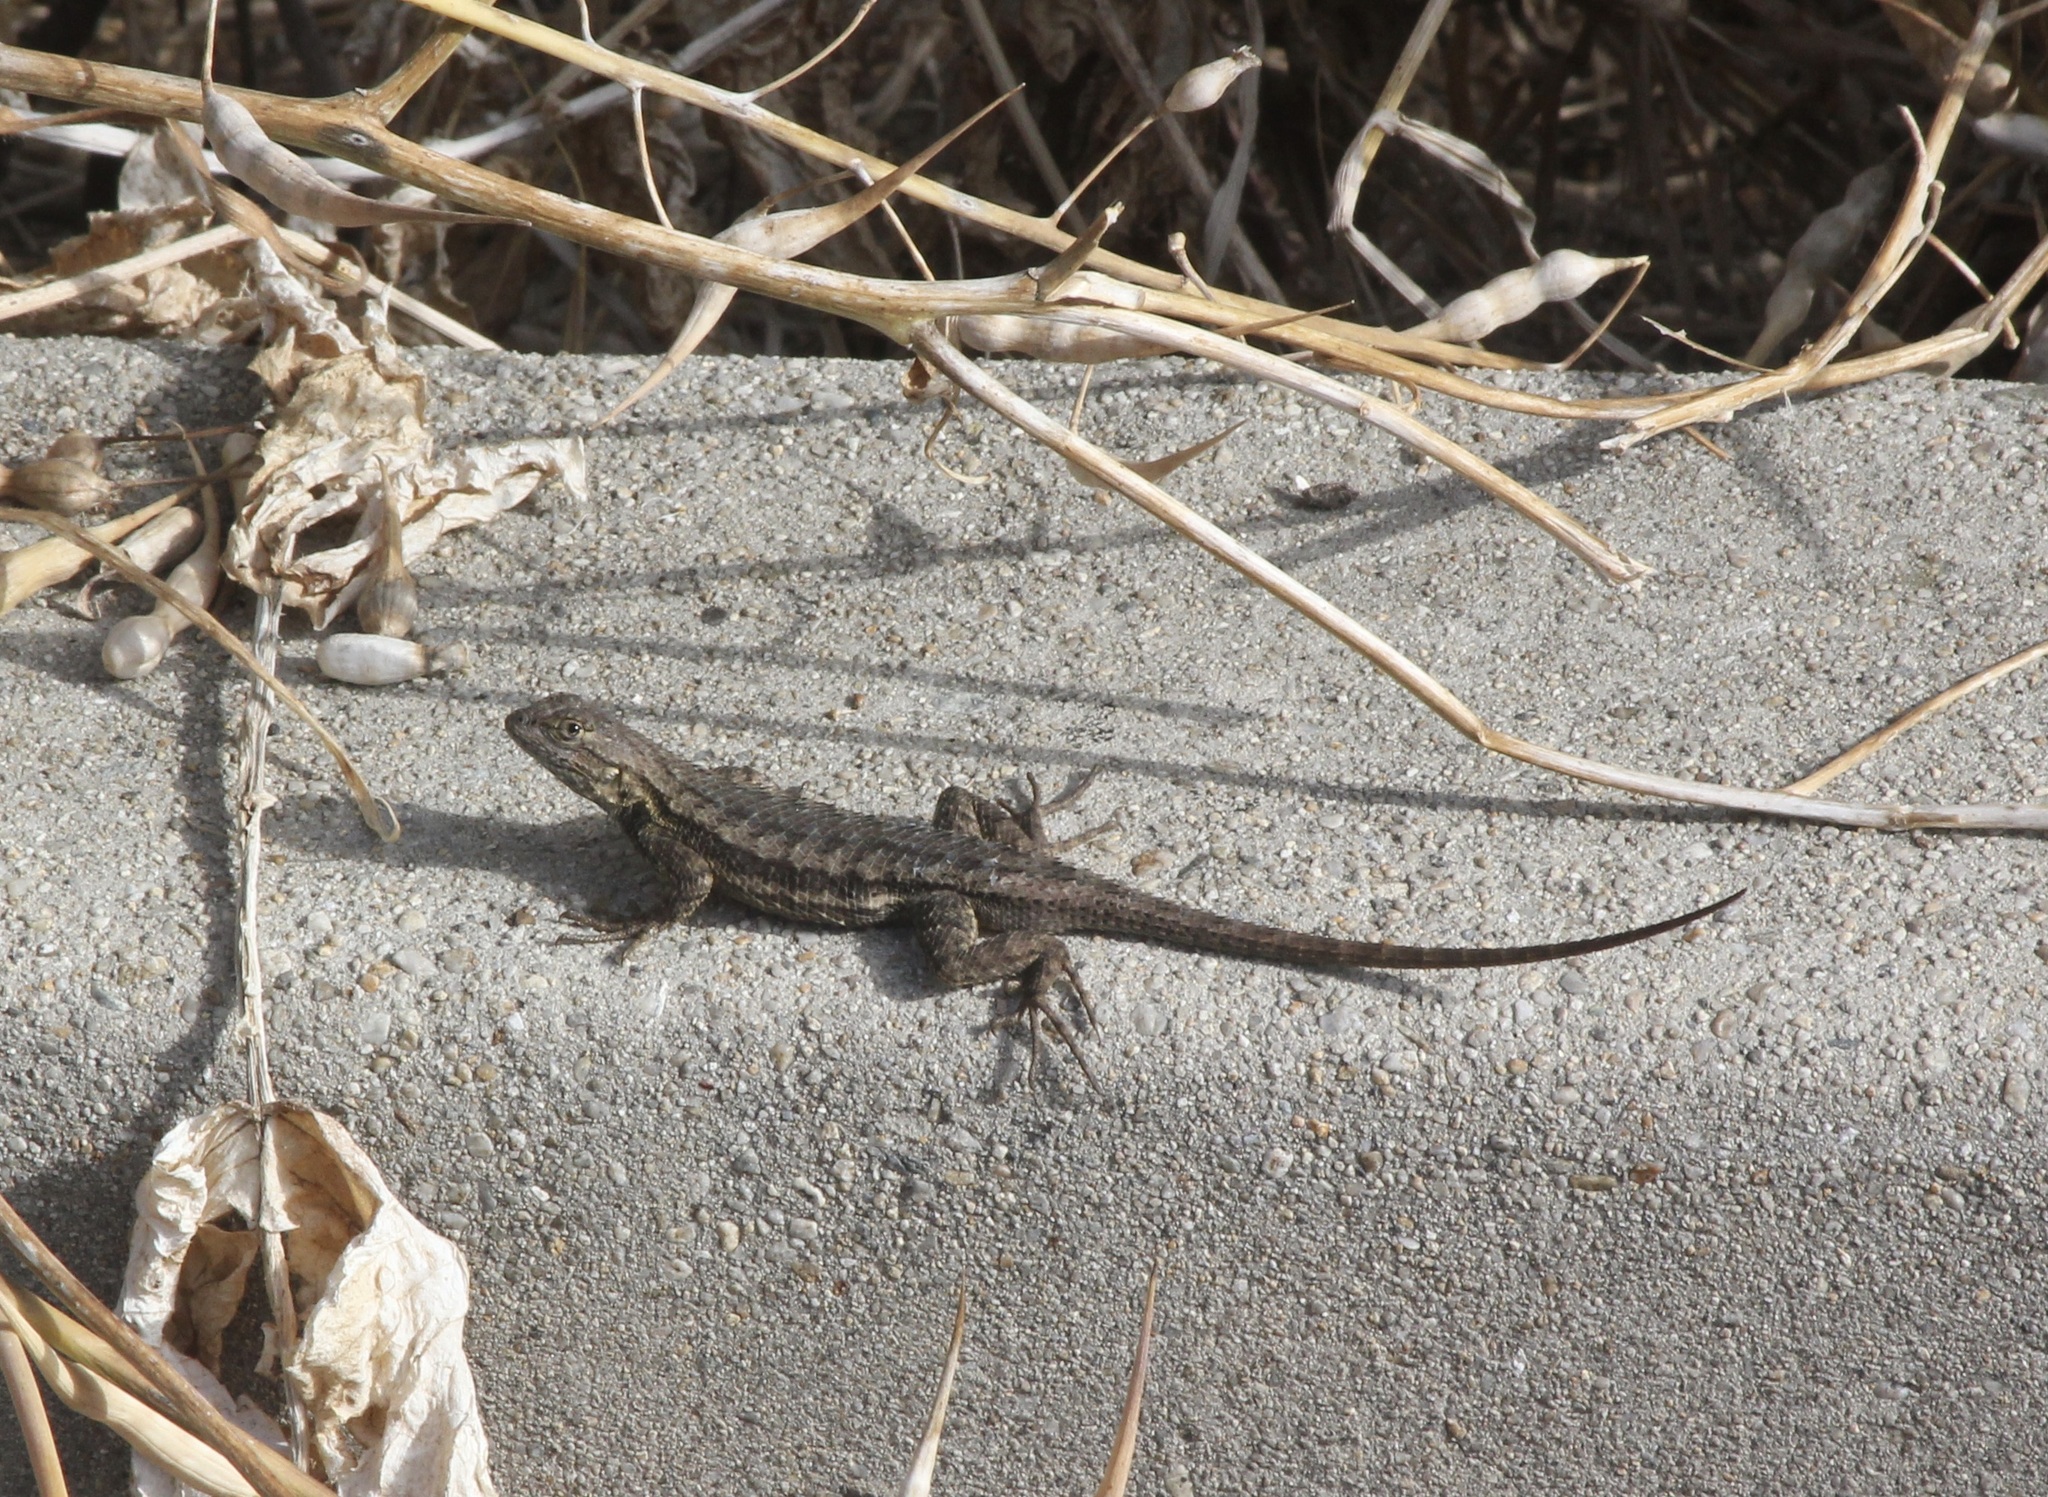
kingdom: Animalia
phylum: Chordata
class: Squamata
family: Phrynosomatidae
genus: Sceloporus
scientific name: Sceloporus occidentalis
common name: Western fence lizard
